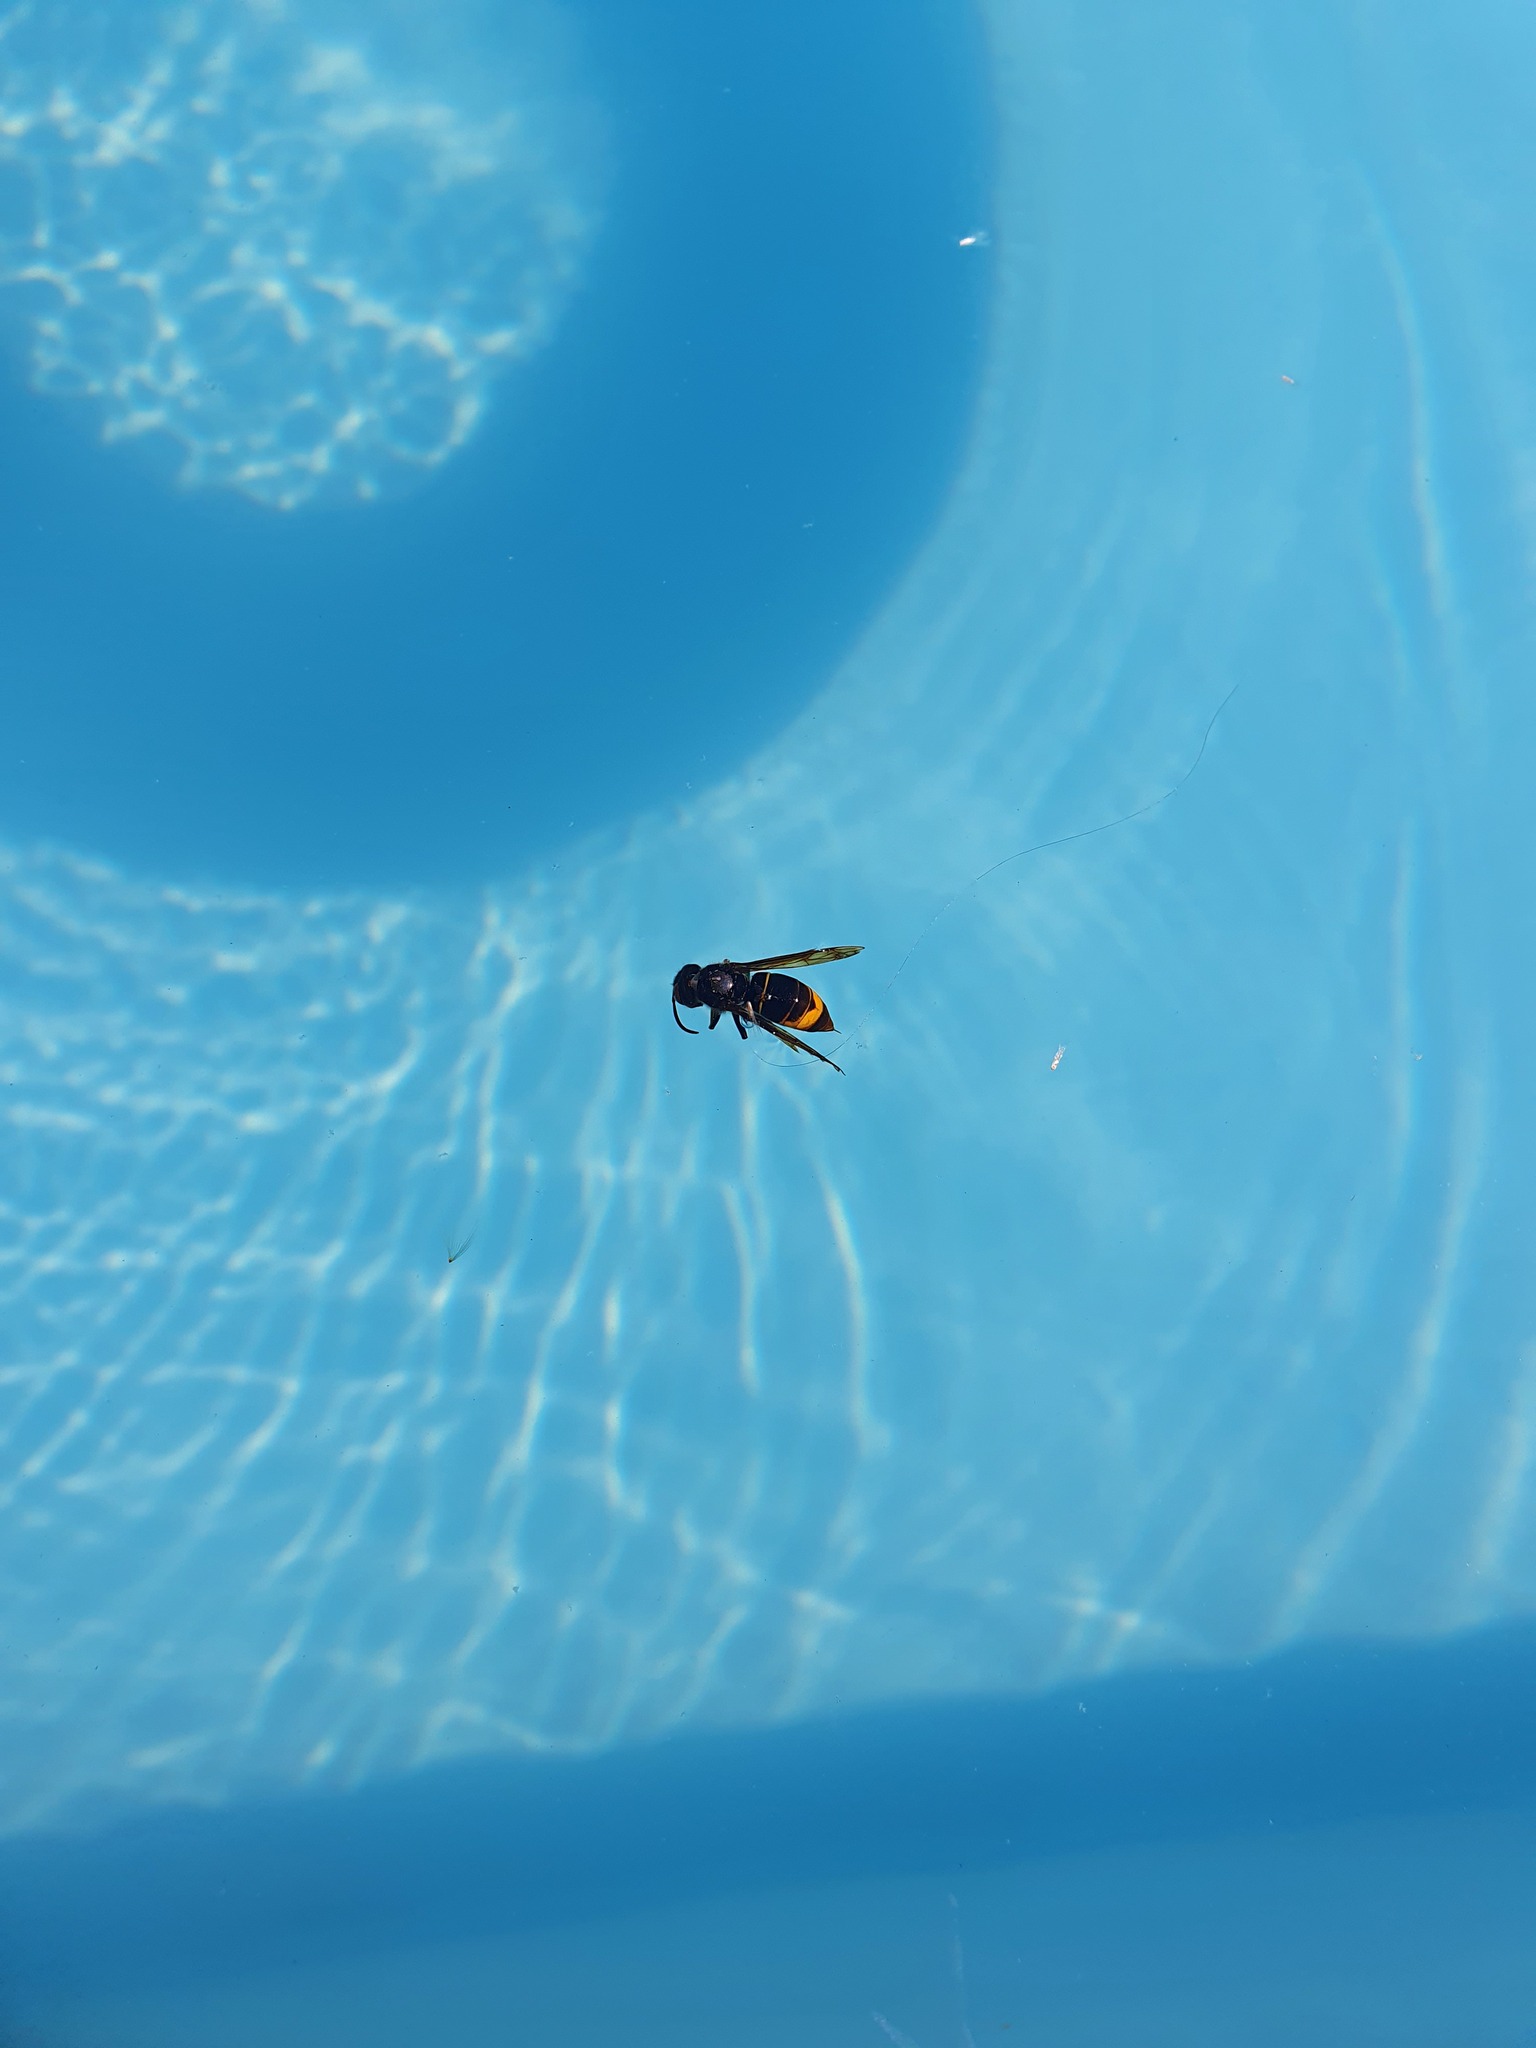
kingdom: Animalia
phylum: Arthropoda
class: Insecta
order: Hymenoptera
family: Vespidae
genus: Vespa
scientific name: Vespa velutina
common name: Asian hornet
